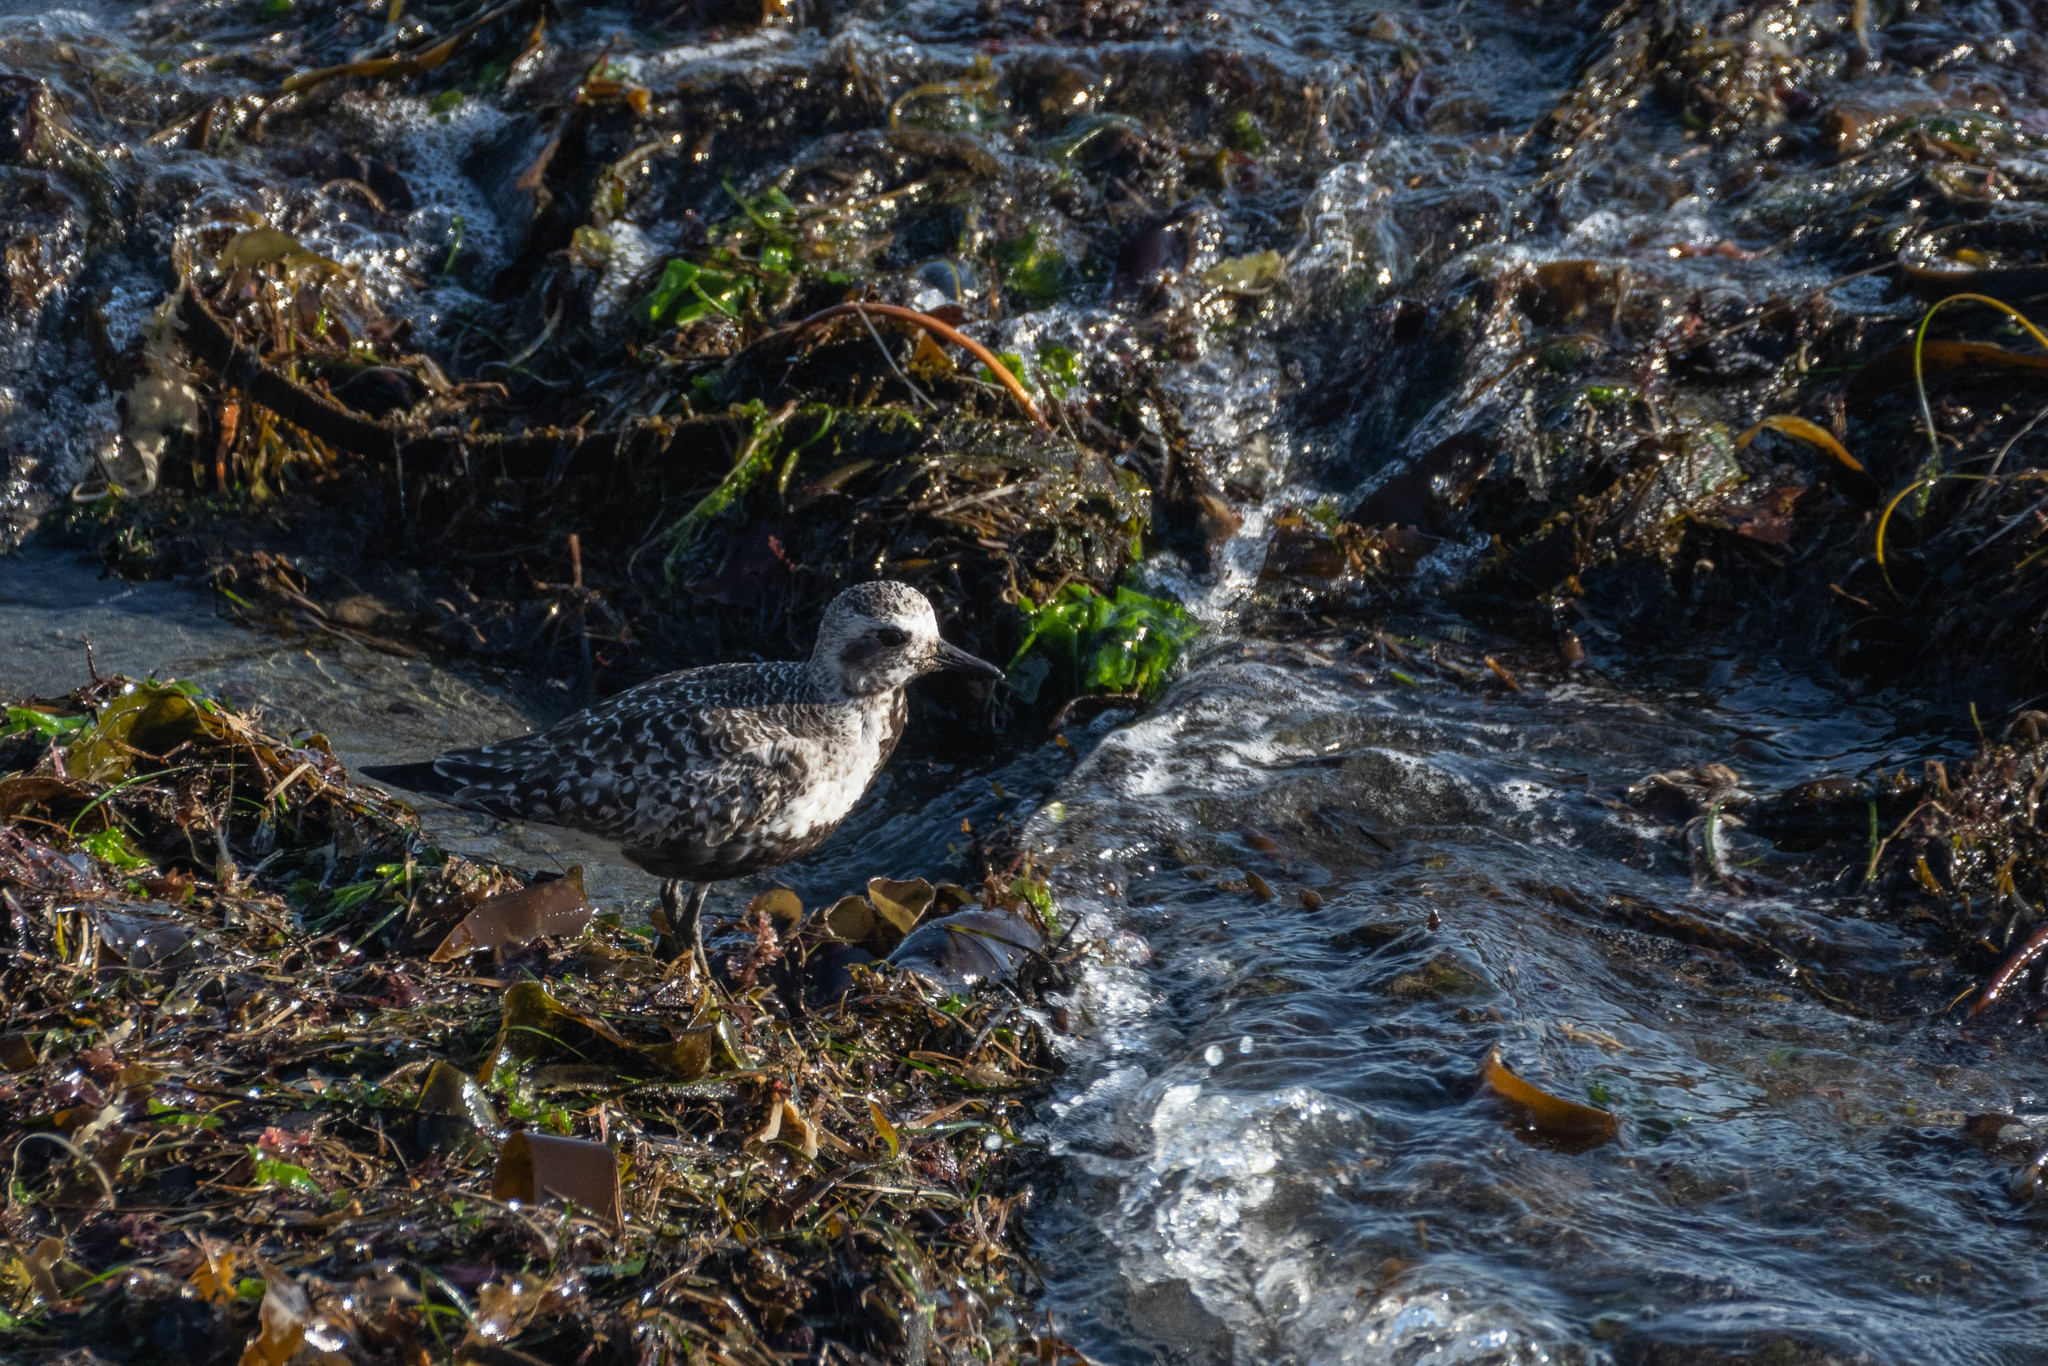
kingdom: Animalia
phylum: Chordata
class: Aves
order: Charadriiformes
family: Charadriidae
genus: Pluvialis
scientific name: Pluvialis squatarola
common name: Grey plover
